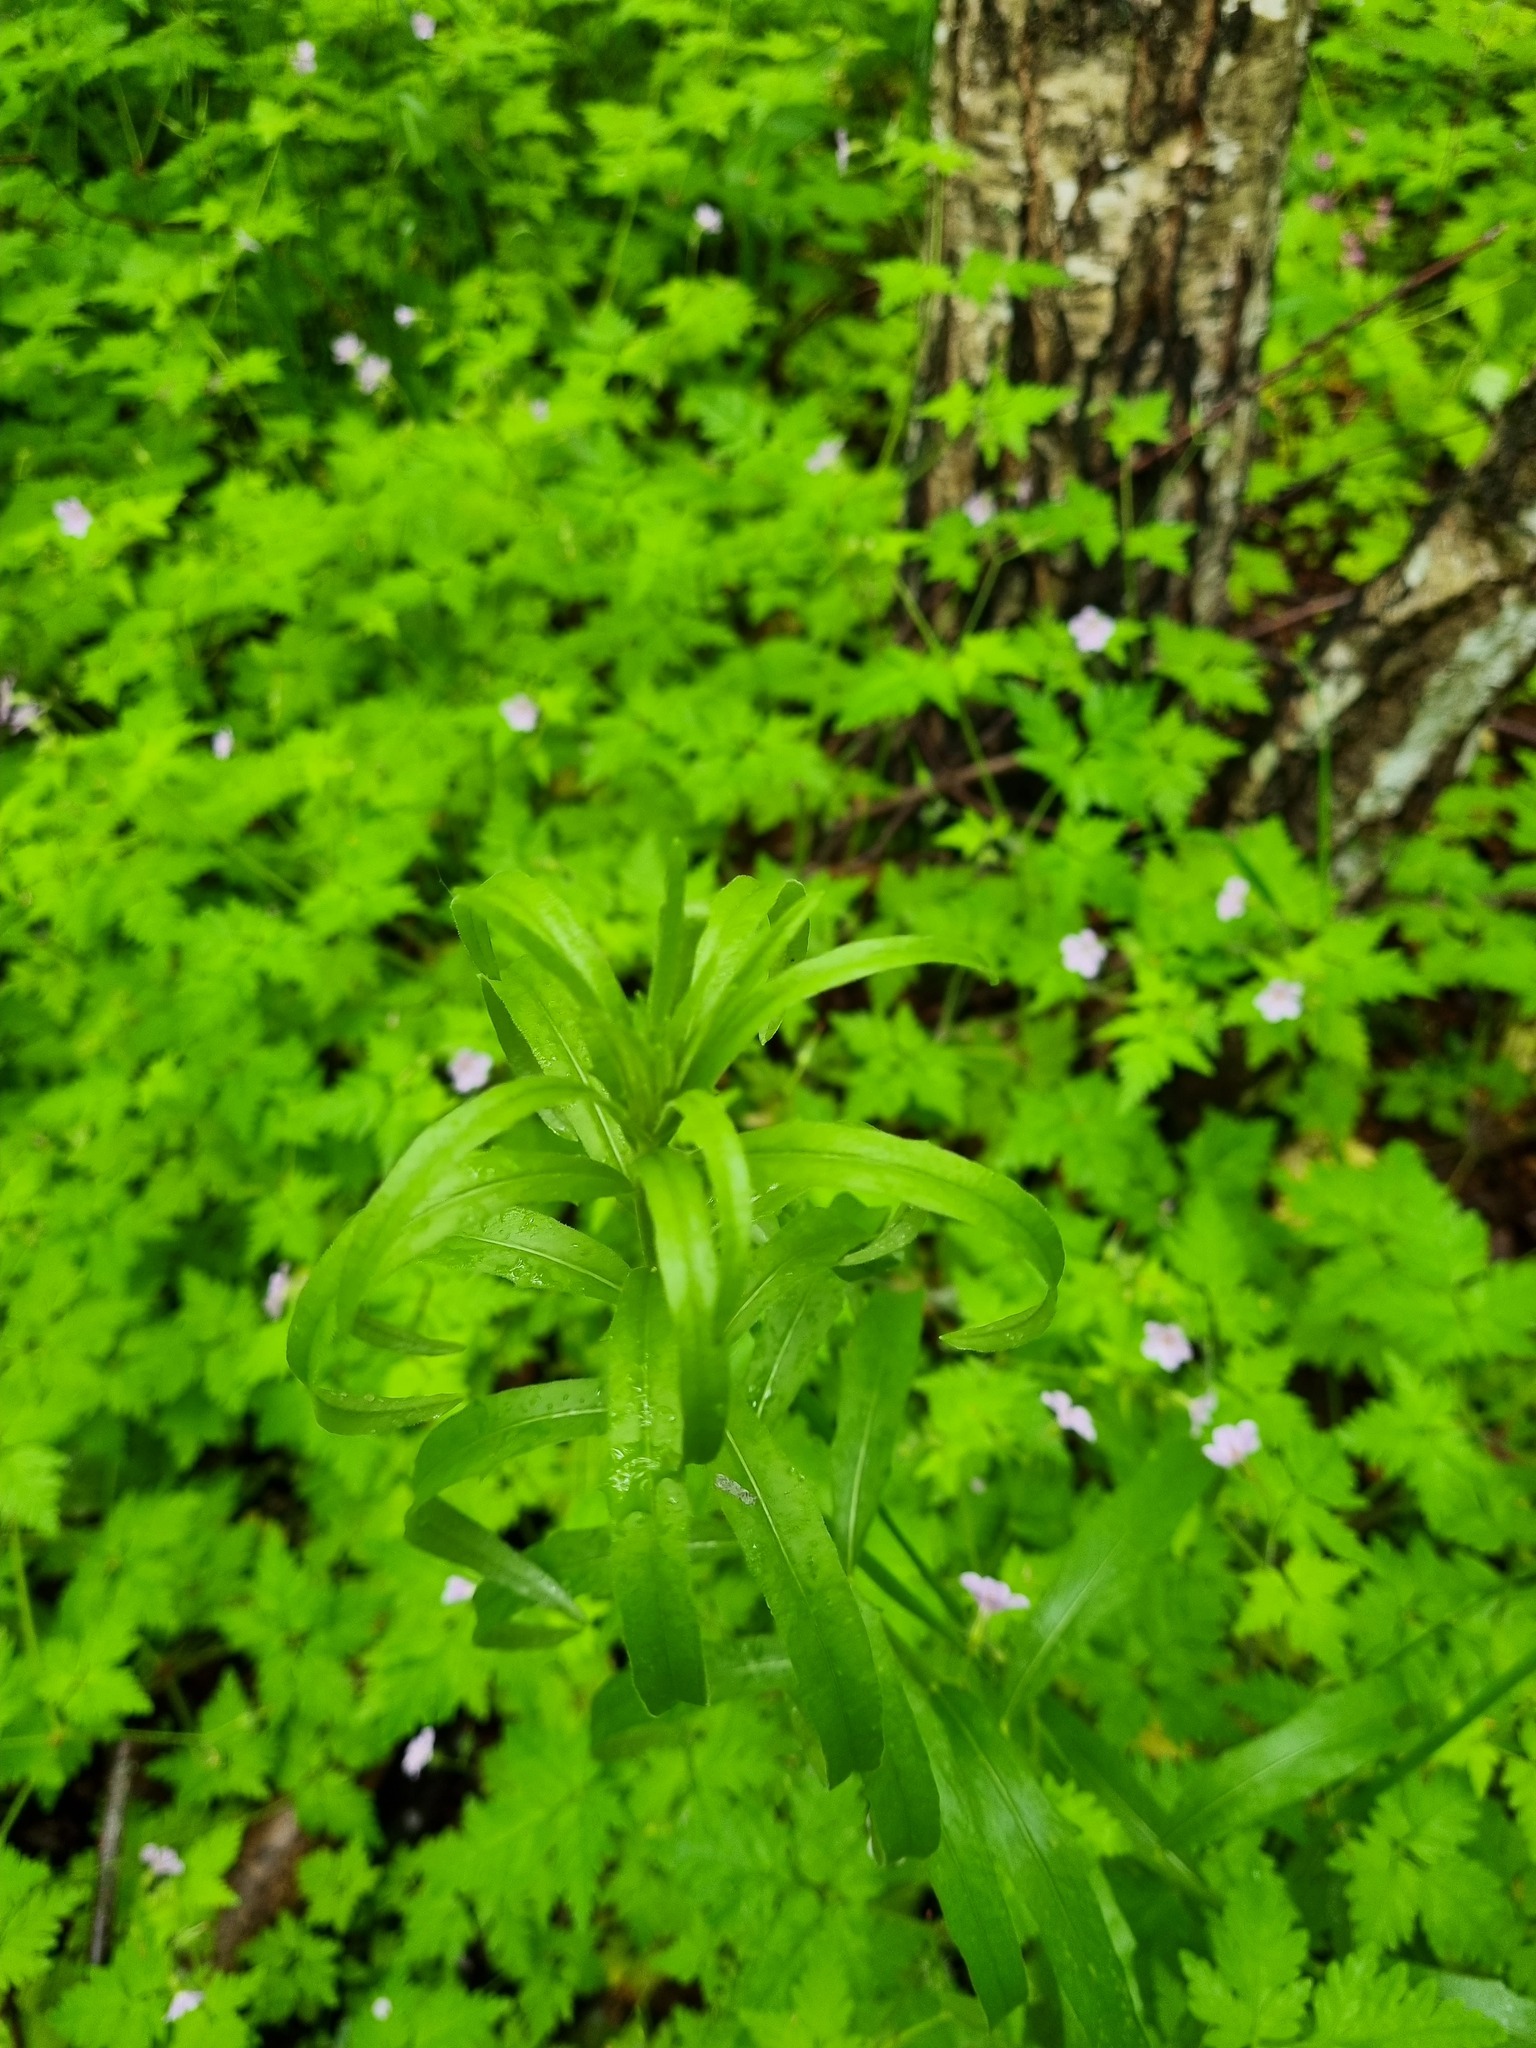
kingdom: Plantae
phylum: Tracheophyta
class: Magnoliopsida
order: Asterales
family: Asteraceae
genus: Hieracium
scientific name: Hieracium umbellatum
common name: Northern hawkweed
